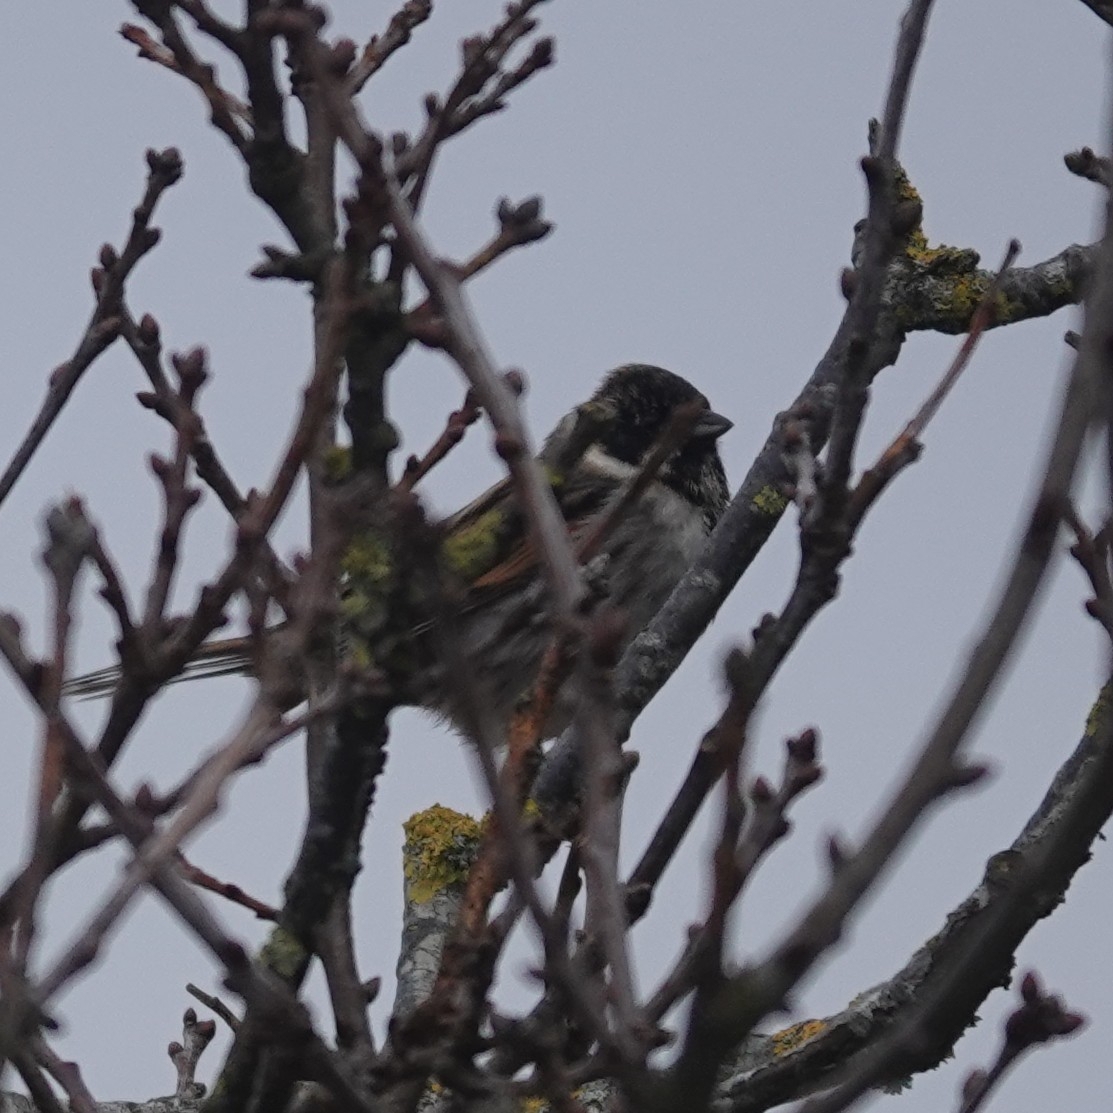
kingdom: Animalia
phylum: Chordata
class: Aves
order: Passeriformes
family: Emberizidae
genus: Emberiza
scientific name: Emberiza schoeniclus
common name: Reed bunting
